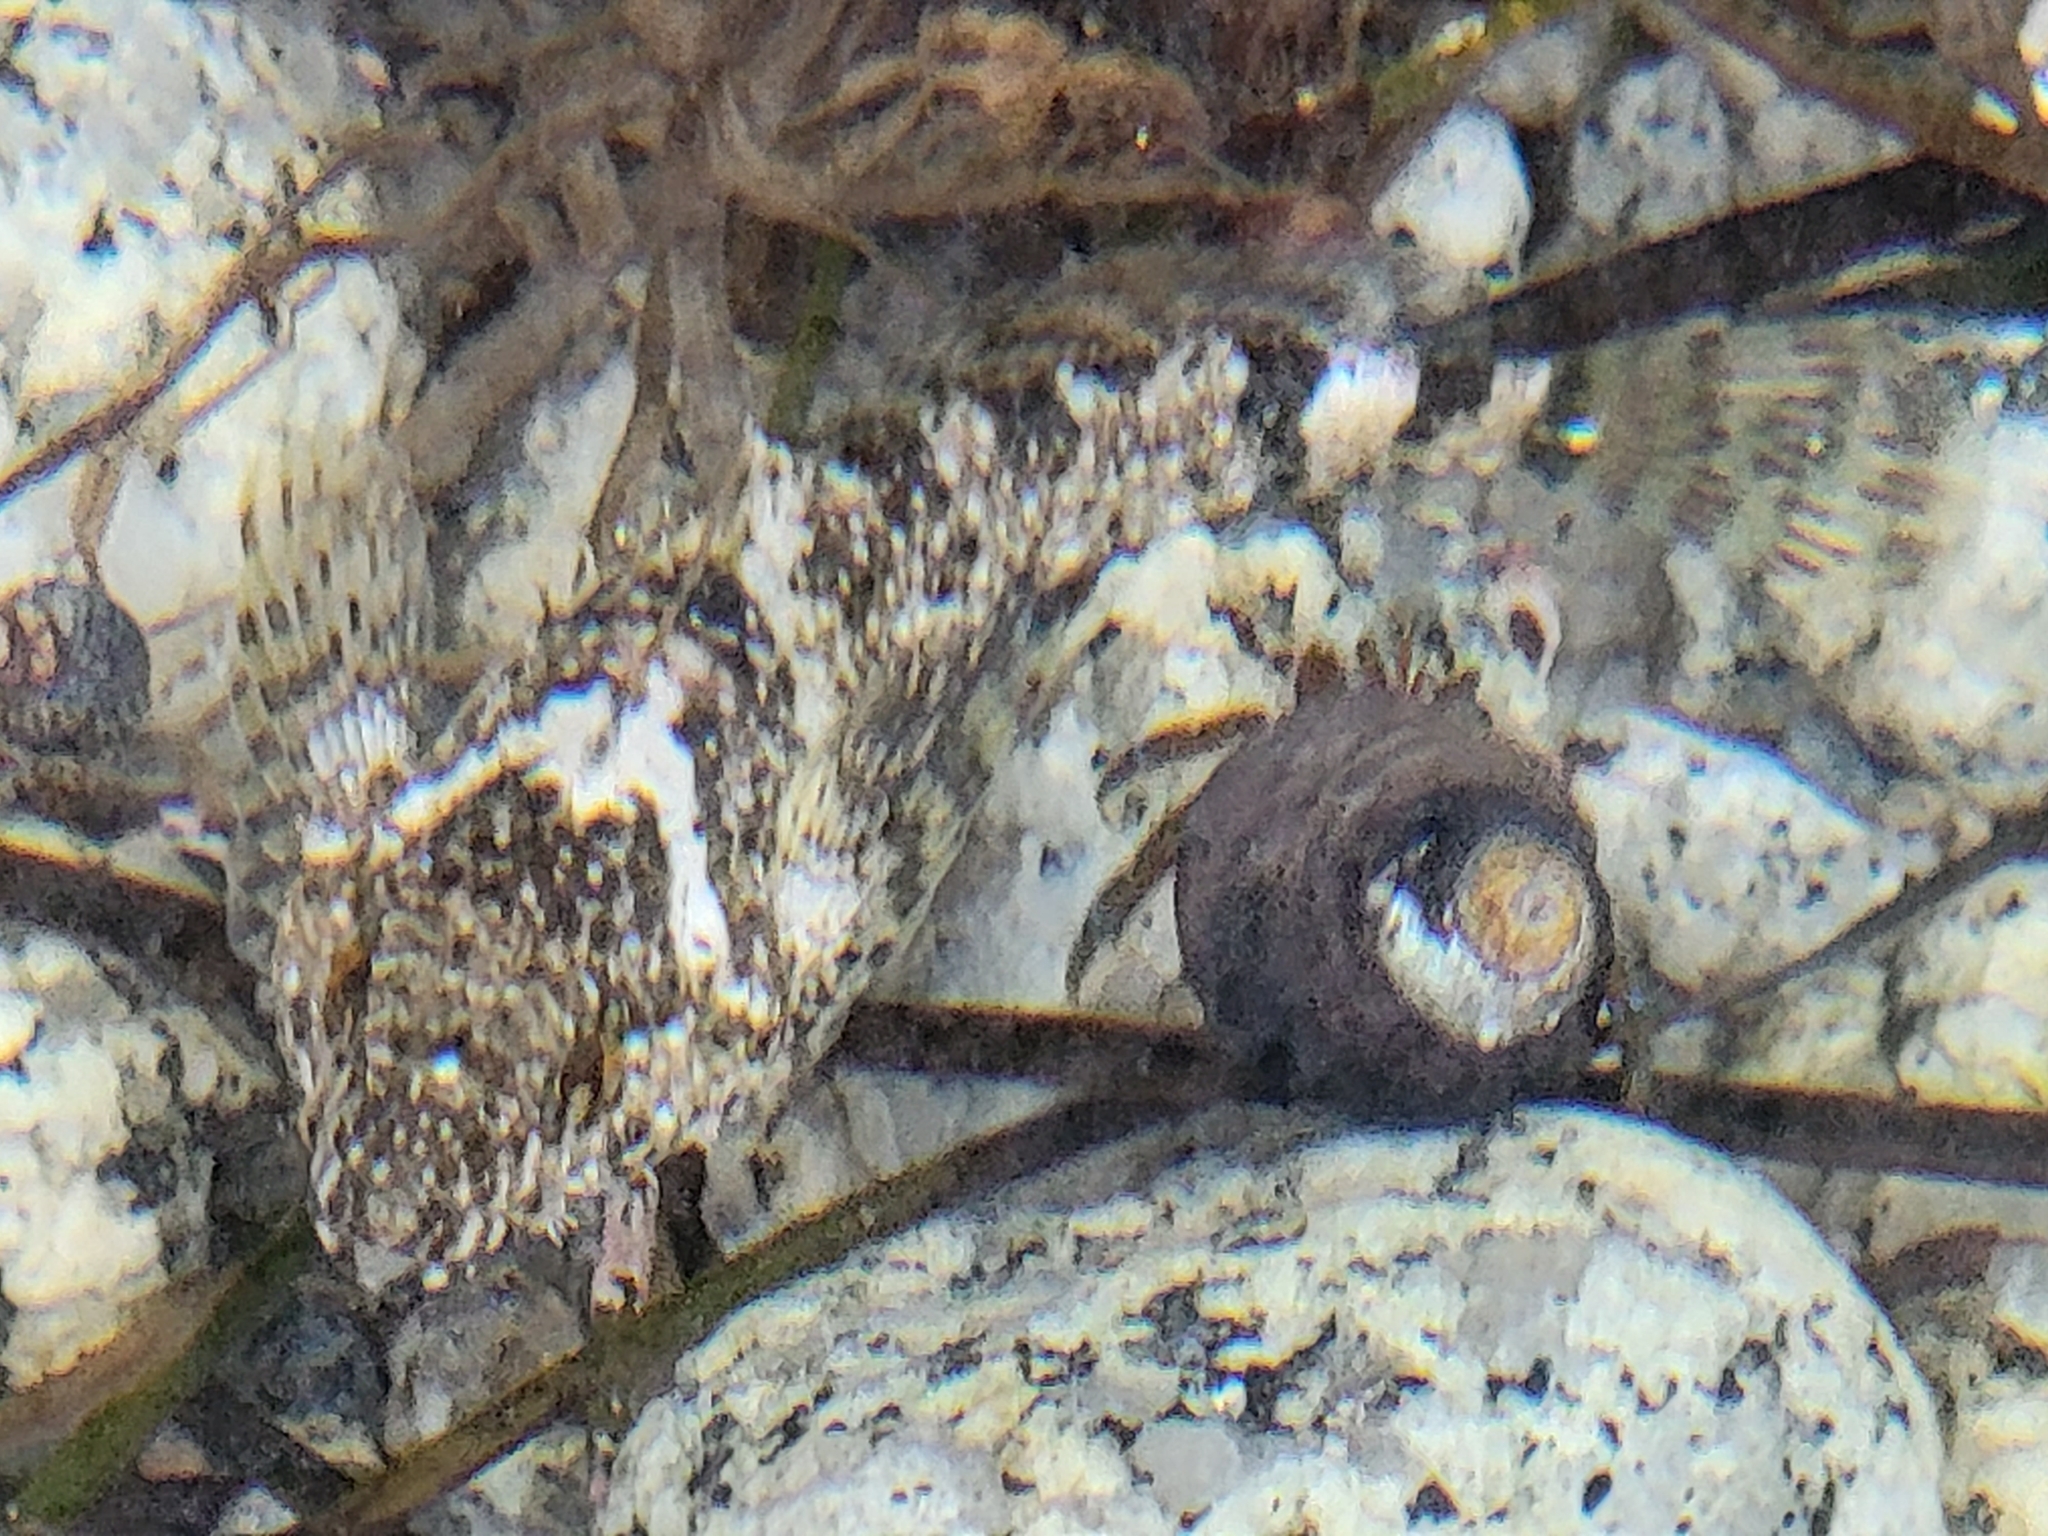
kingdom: Animalia
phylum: Chordata
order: Scorpaeniformes
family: Cottidae
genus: Clinocottus
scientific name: Clinocottus analis
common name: Woolly sculpin
